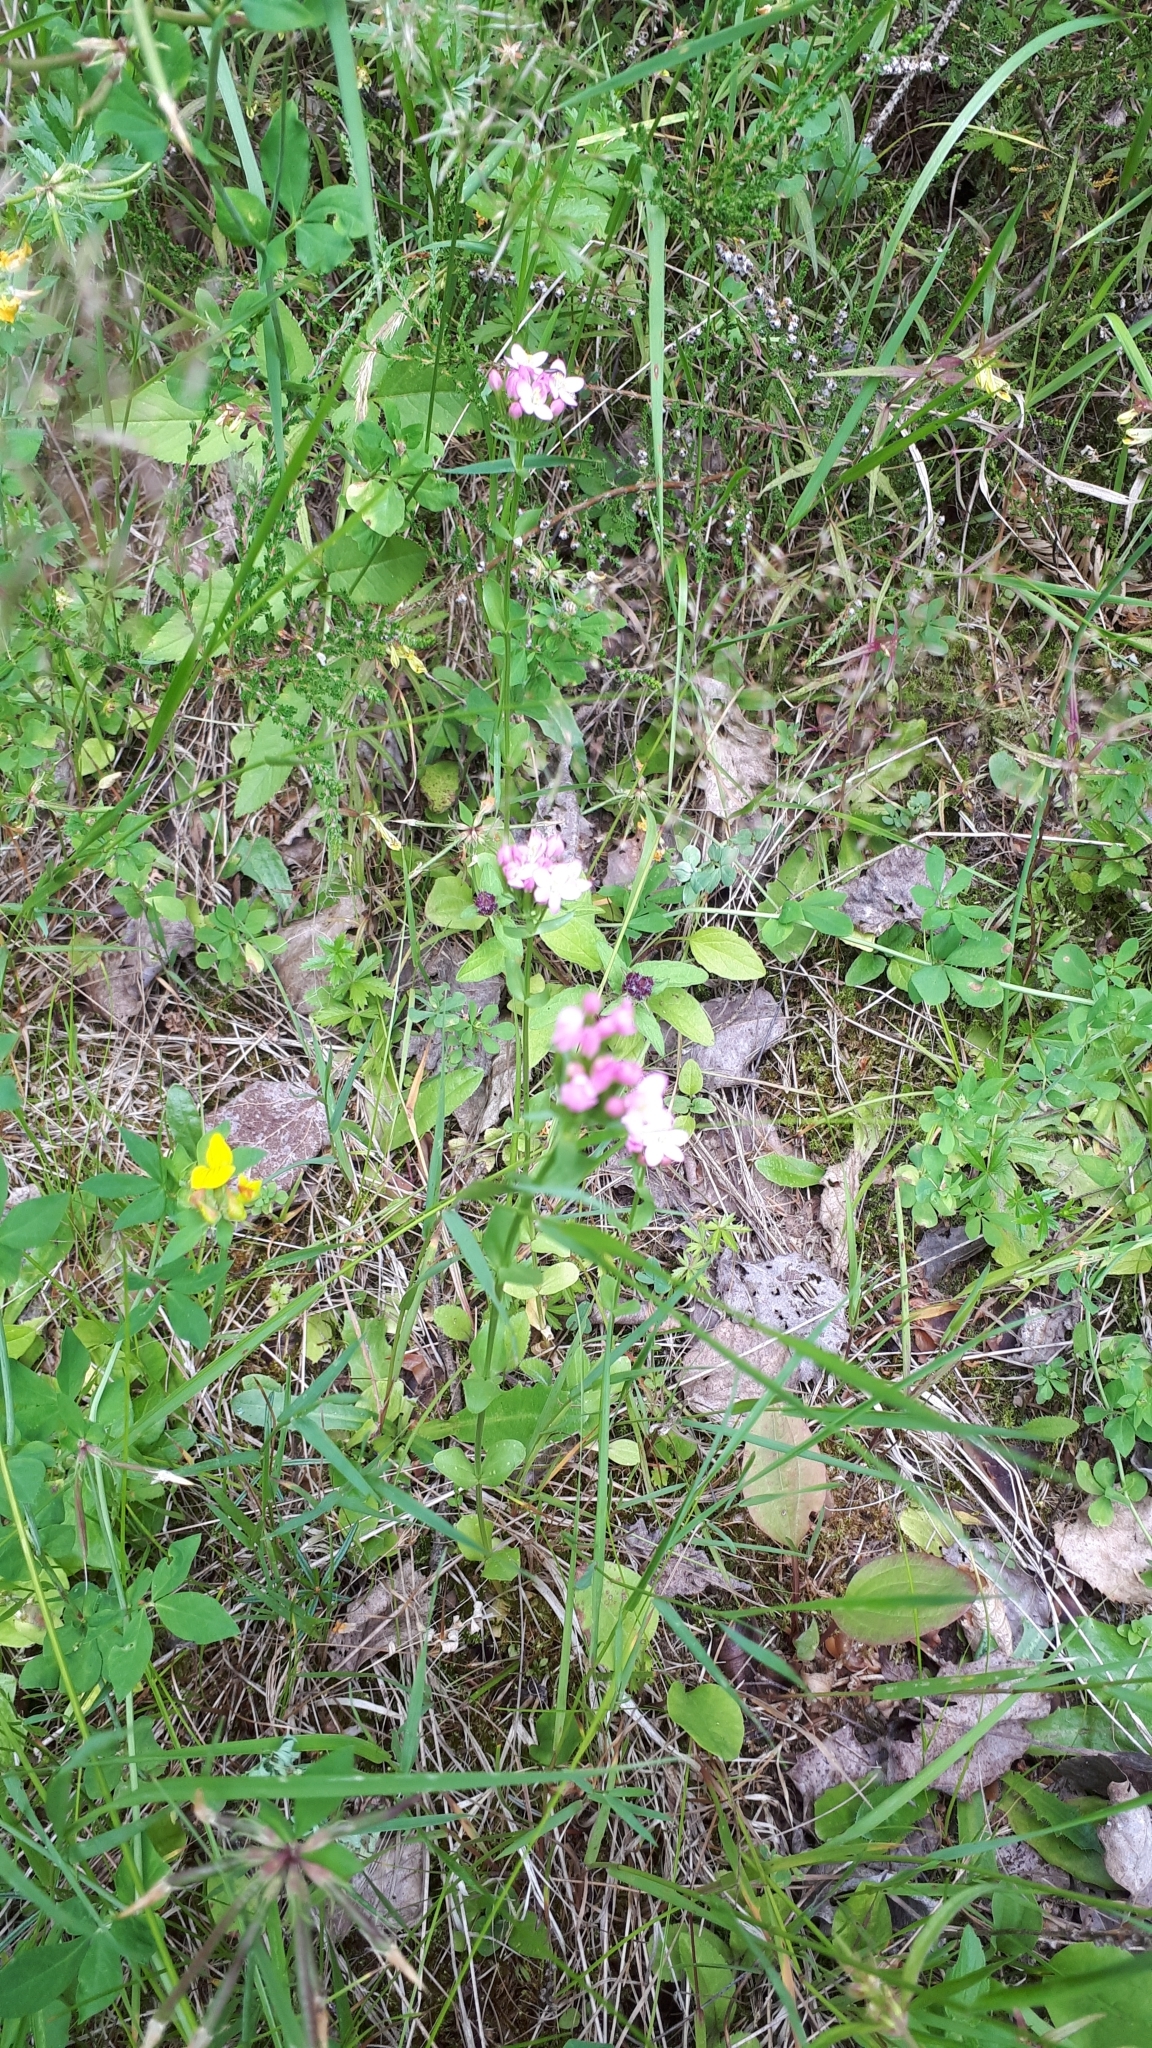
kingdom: Plantae
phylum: Tracheophyta
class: Magnoliopsida
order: Gentianales
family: Gentianaceae
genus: Centaurium
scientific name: Centaurium erythraea
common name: Common centaury
